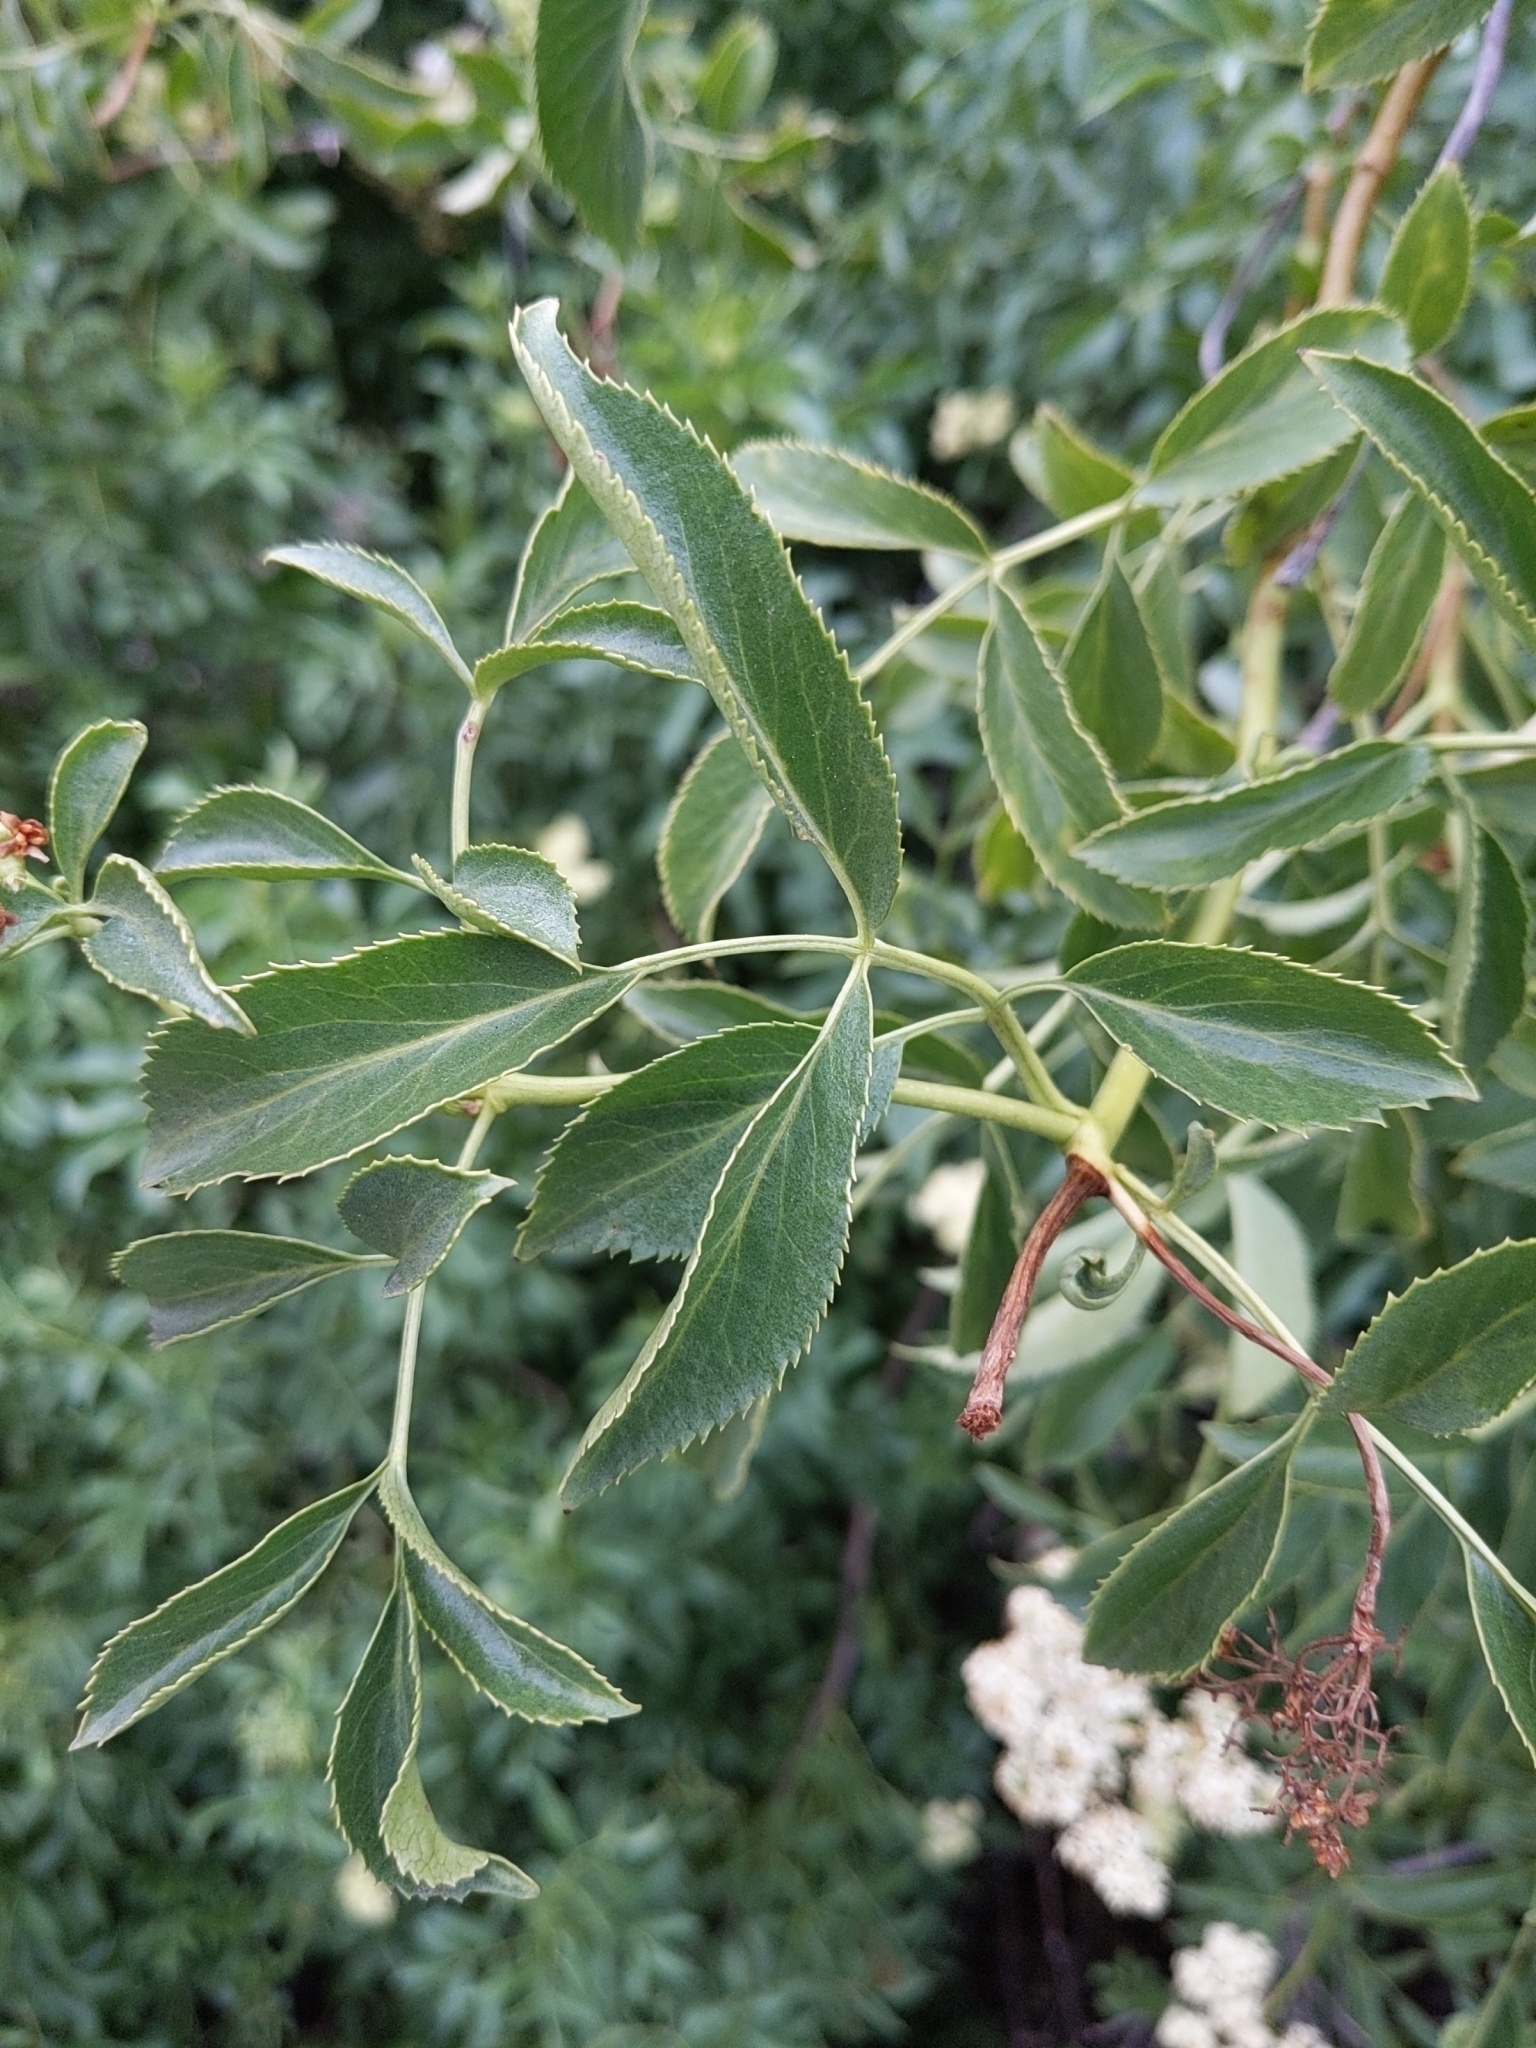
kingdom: Plantae
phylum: Tracheophyta
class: Magnoliopsida
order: Dipsacales
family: Viburnaceae
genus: Sambucus
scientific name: Sambucus cerulea
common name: Blue elder
